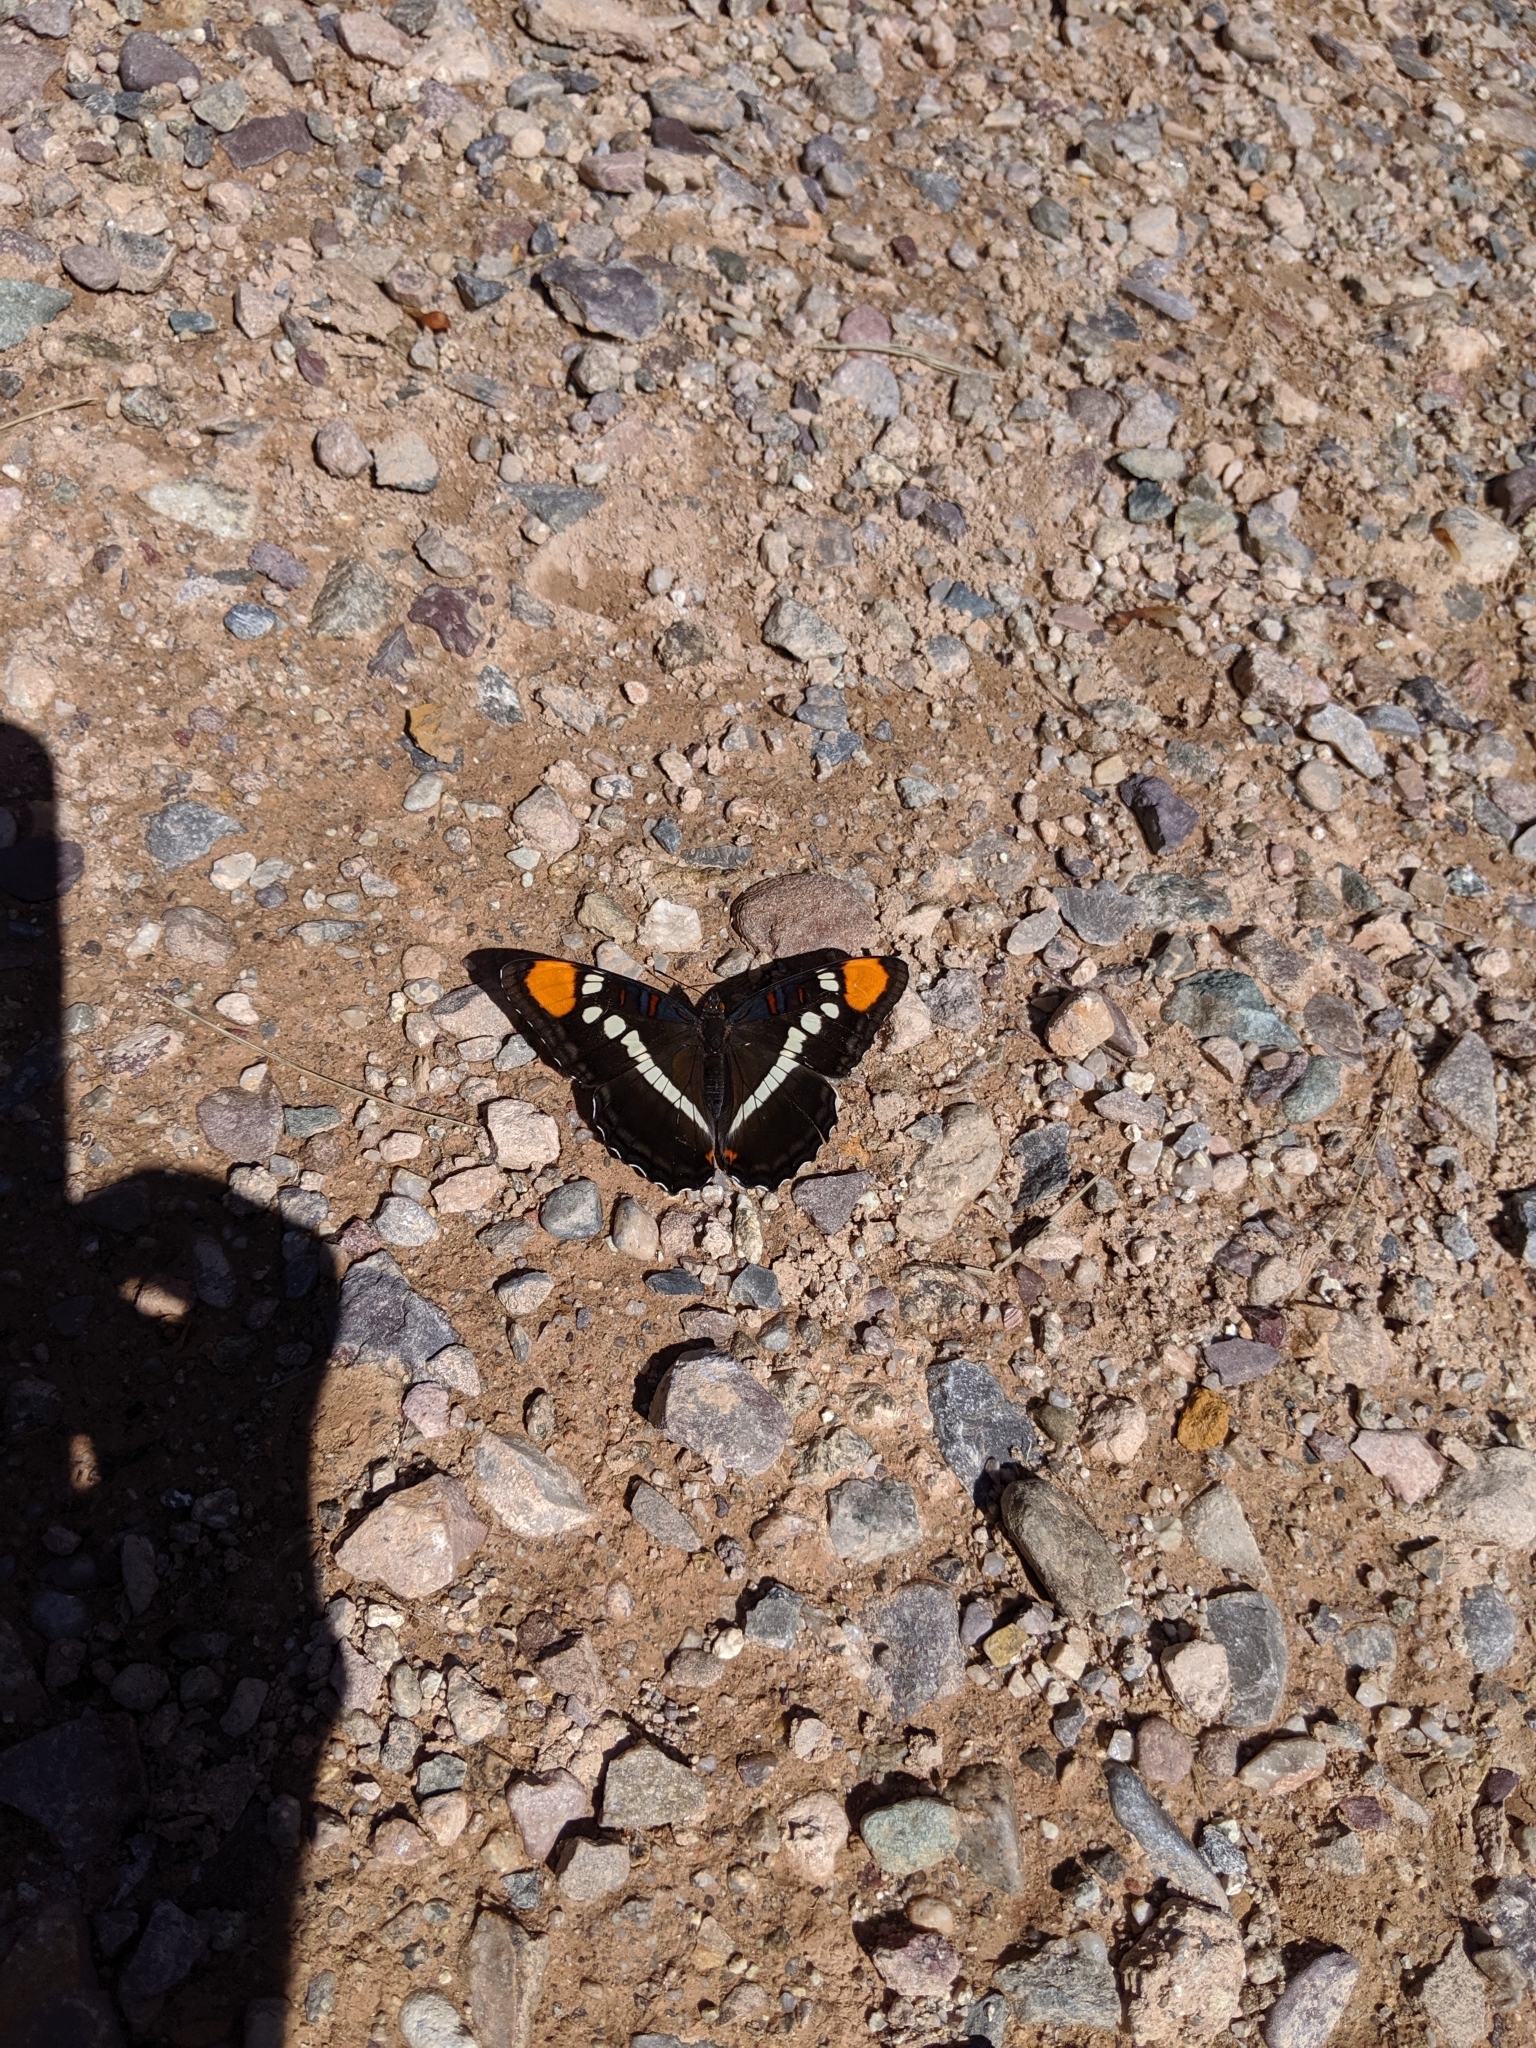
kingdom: Animalia
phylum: Arthropoda
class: Insecta
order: Lepidoptera
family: Nymphalidae
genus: Limenitis
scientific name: Limenitis bredowii
